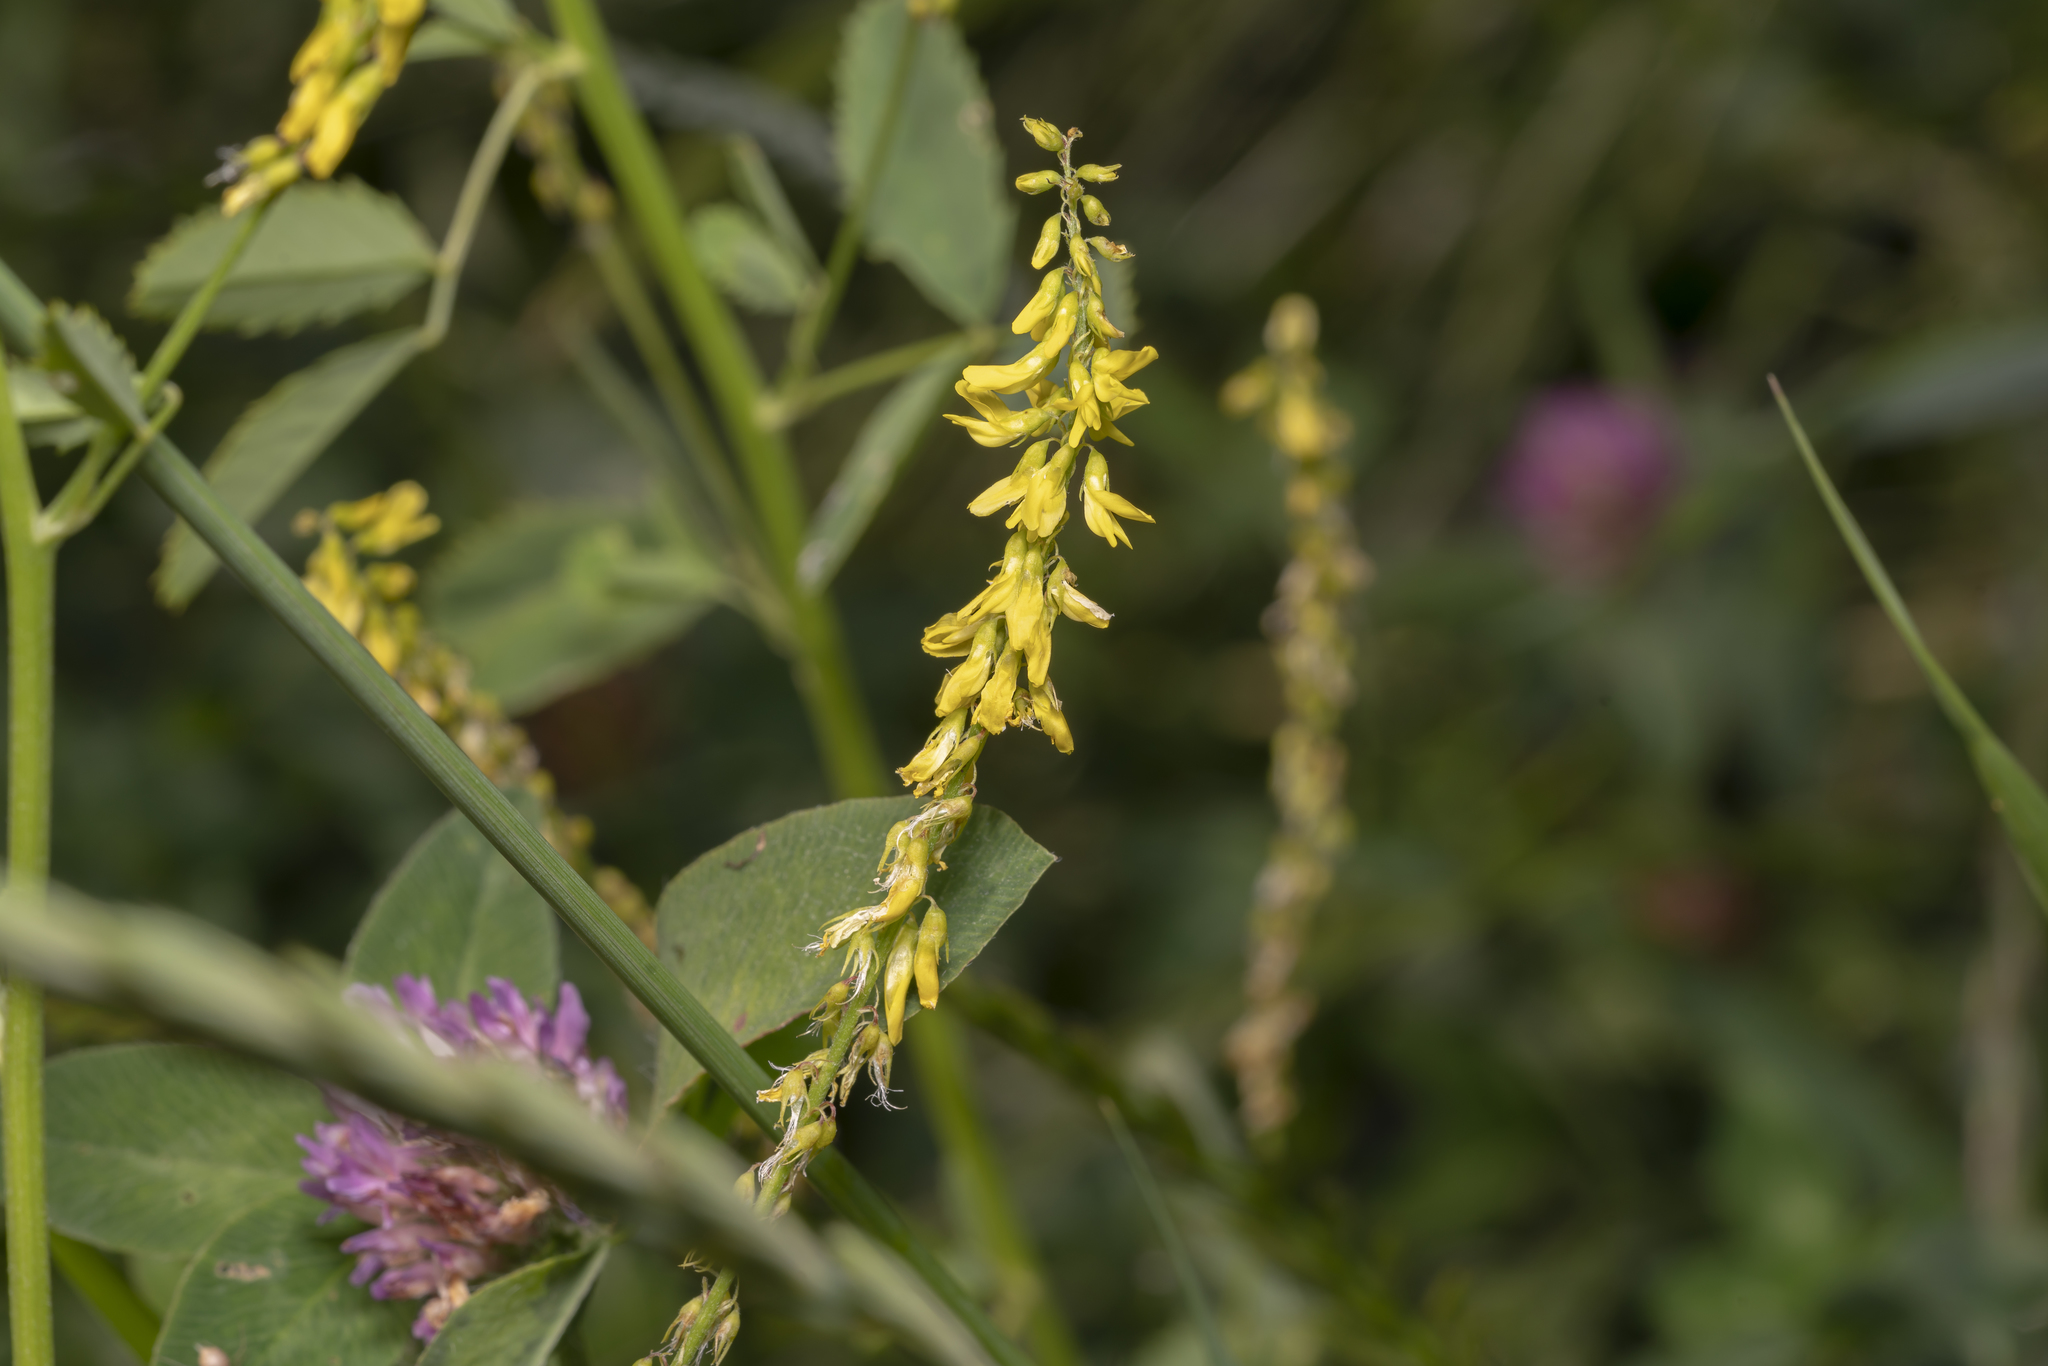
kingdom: Plantae
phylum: Tracheophyta
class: Magnoliopsida
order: Fabales
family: Fabaceae
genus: Melilotus
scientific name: Melilotus officinalis
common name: Sweetclover
